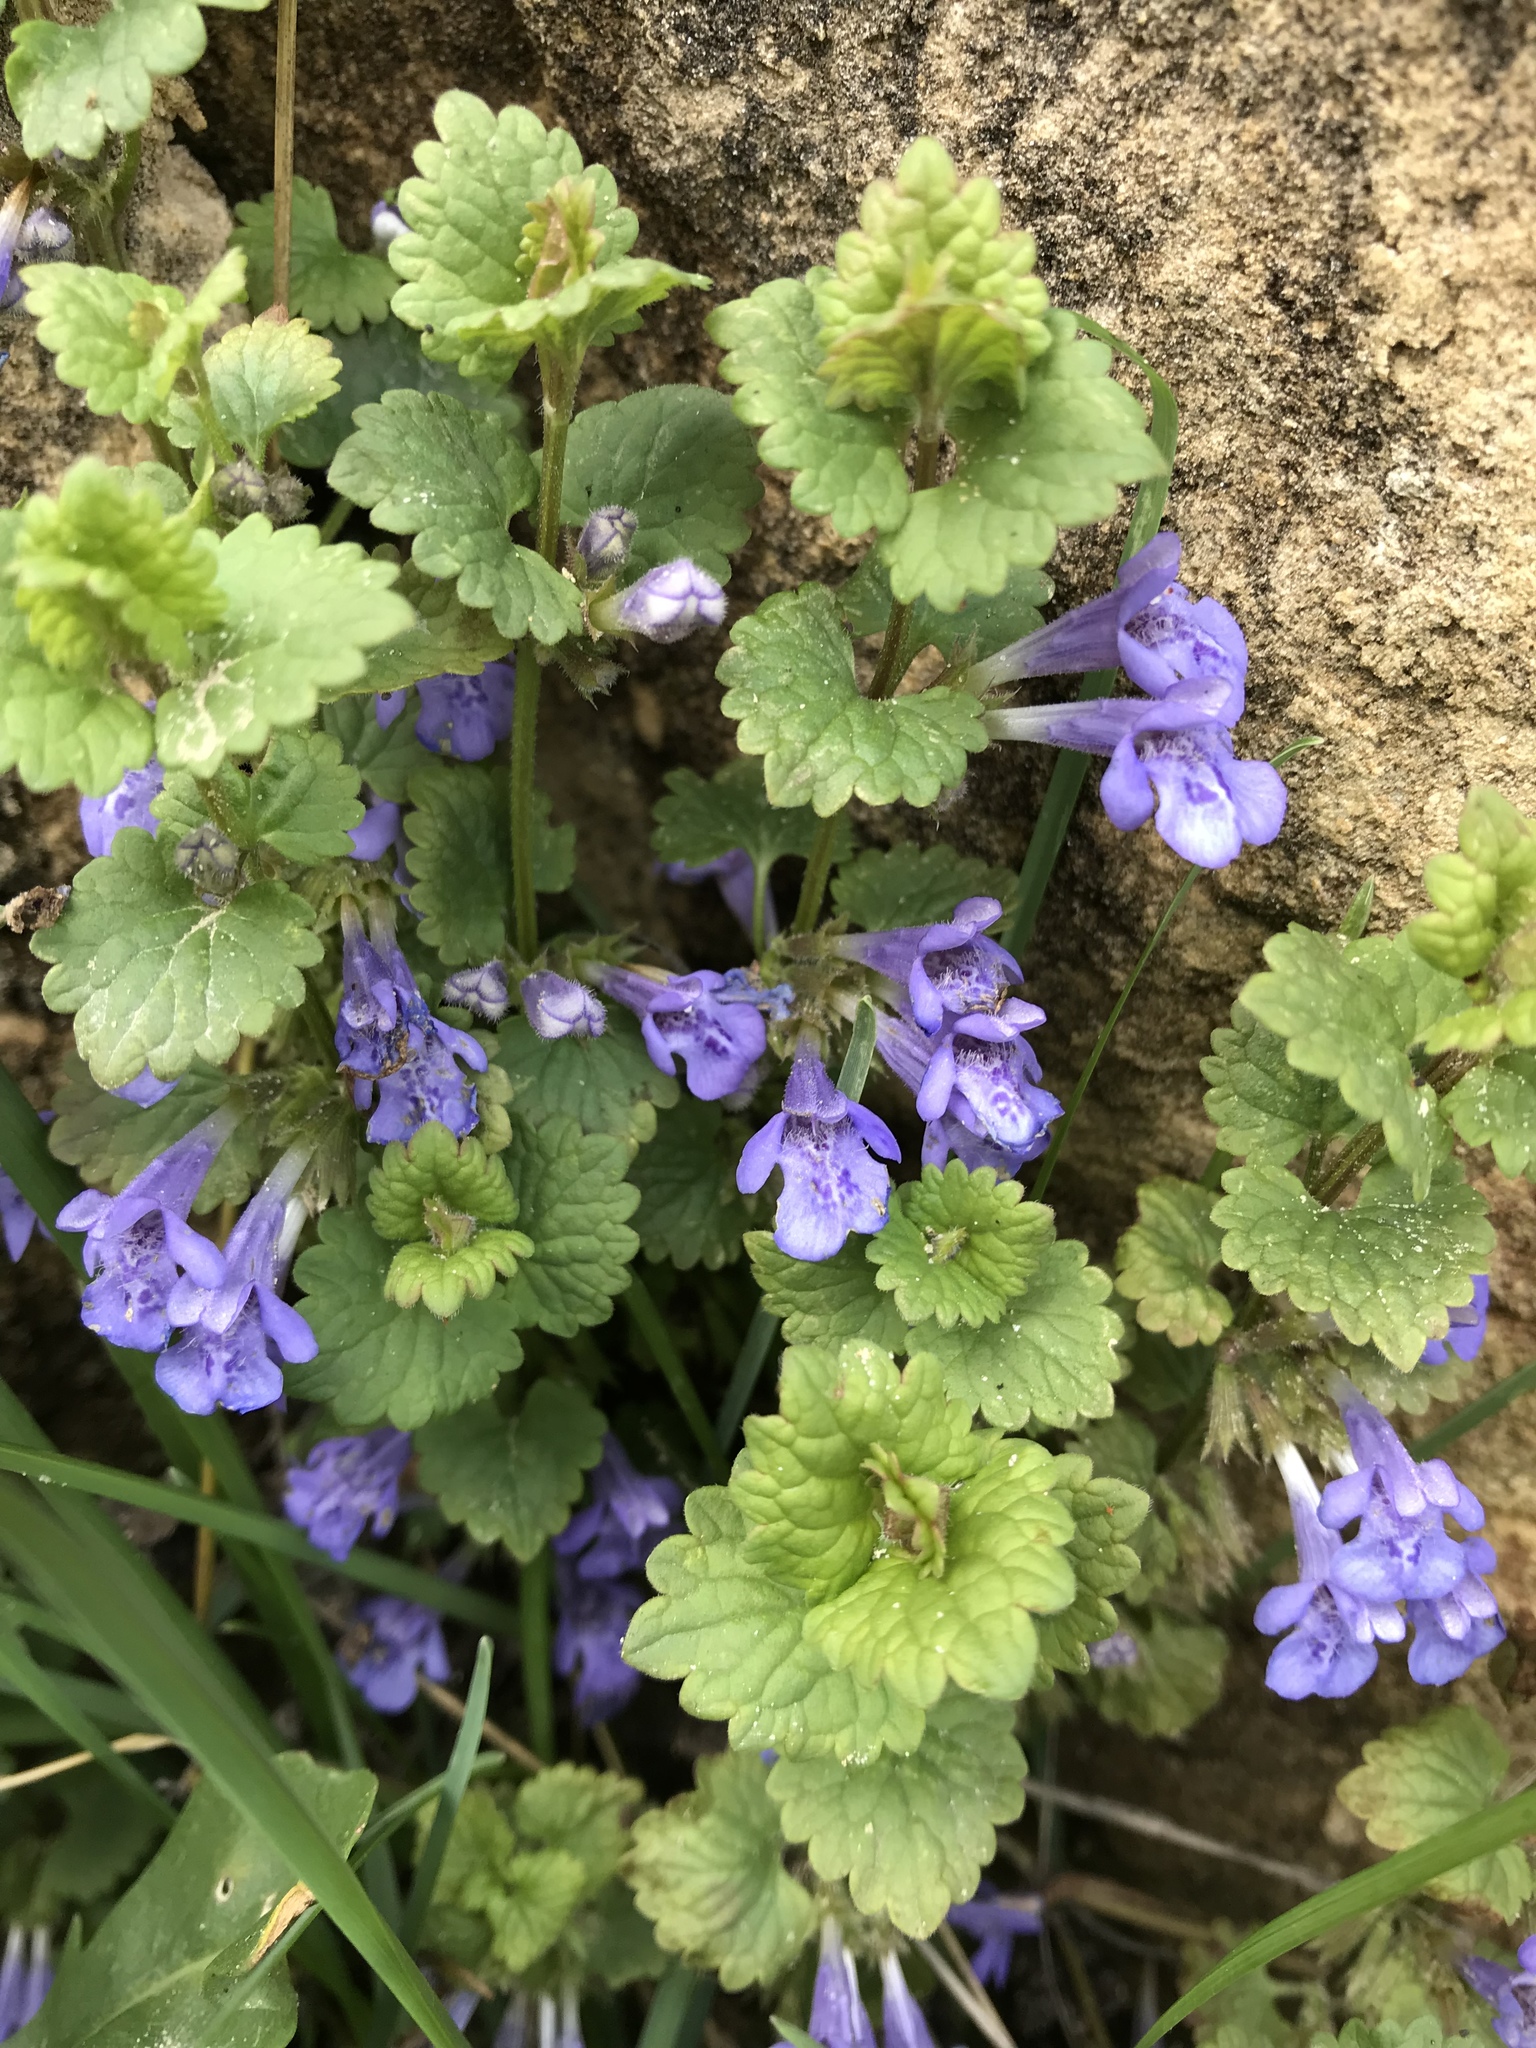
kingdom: Plantae
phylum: Tracheophyta
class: Magnoliopsida
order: Lamiales
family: Lamiaceae
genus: Glechoma
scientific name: Glechoma hederacea
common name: Ground ivy
